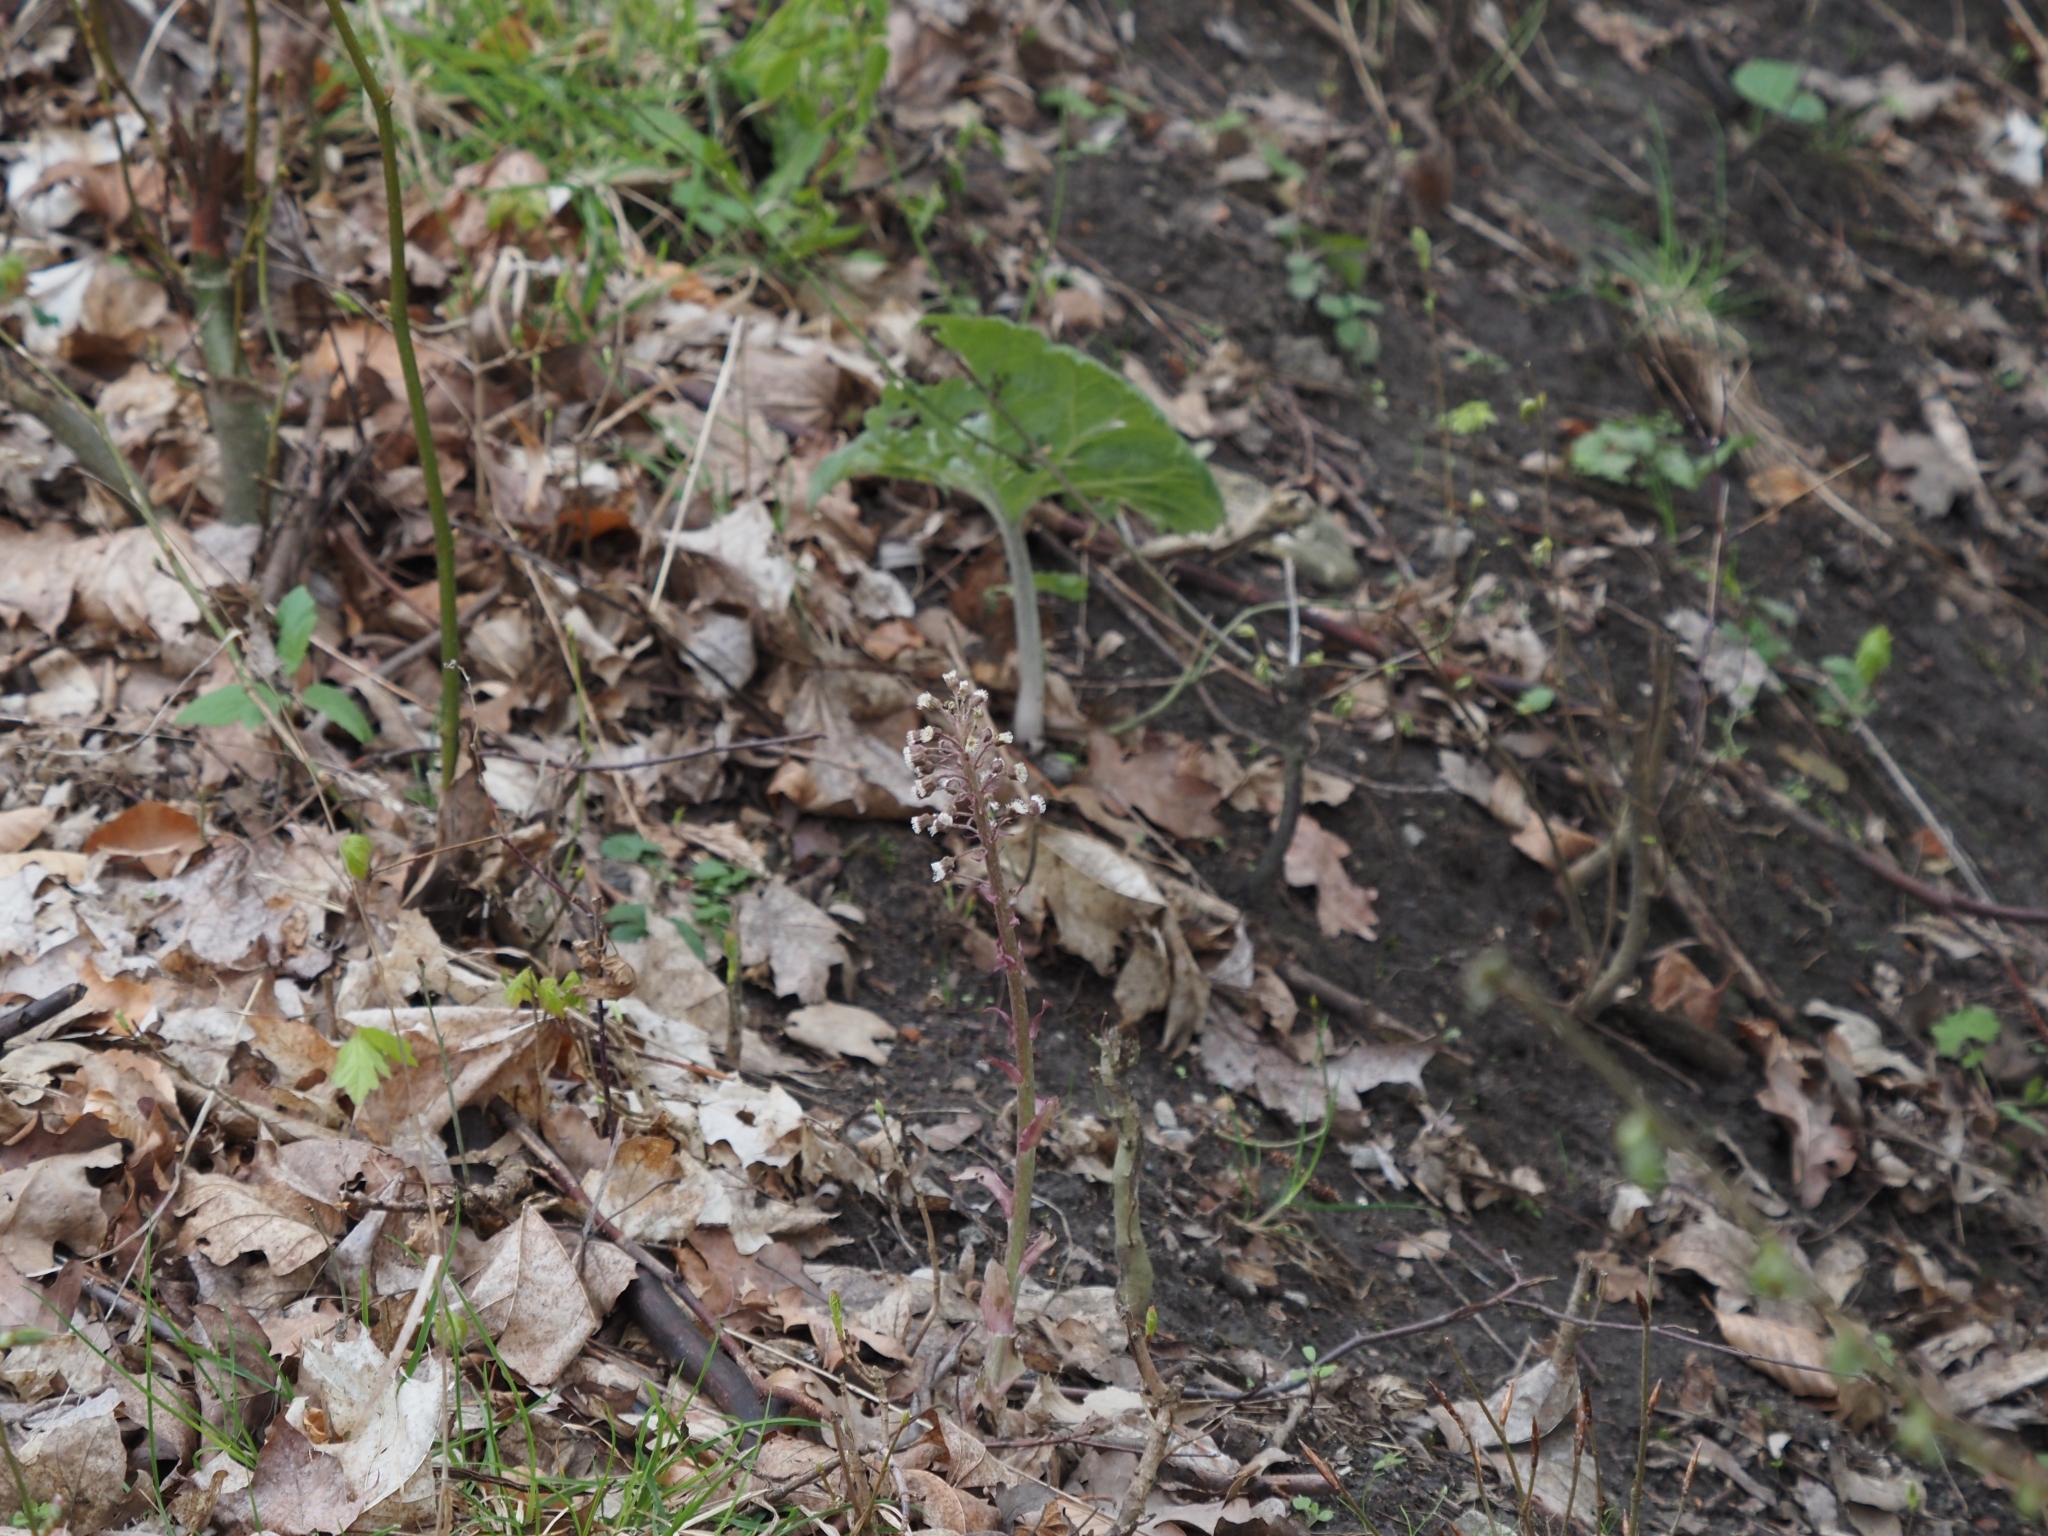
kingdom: Plantae
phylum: Tracheophyta
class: Magnoliopsida
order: Asterales
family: Asteraceae
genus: Petasites
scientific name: Petasites hybridus
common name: Butterbur
